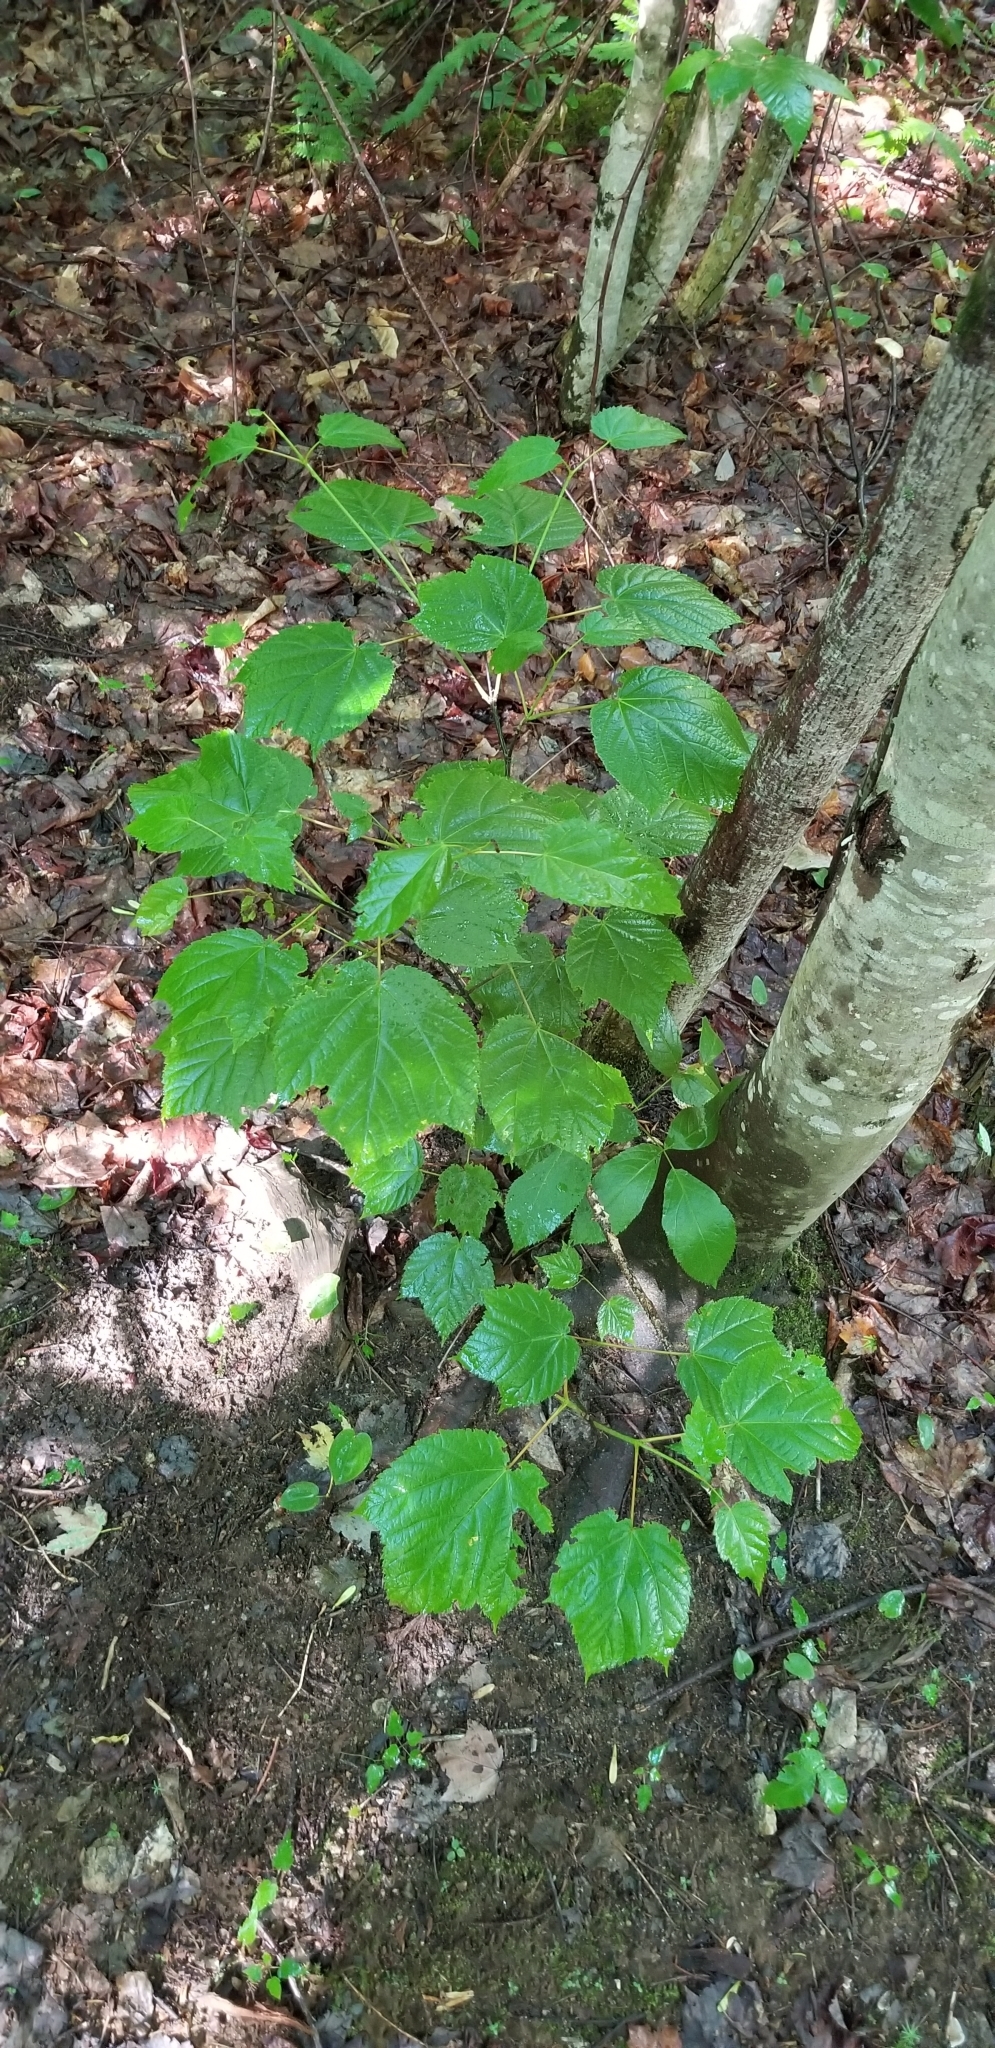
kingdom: Plantae
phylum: Tracheophyta
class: Magnoliopsida
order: Sapindales
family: Sapindaceae
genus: Acer
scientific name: Acer pensylvanicum
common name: Moosewood
